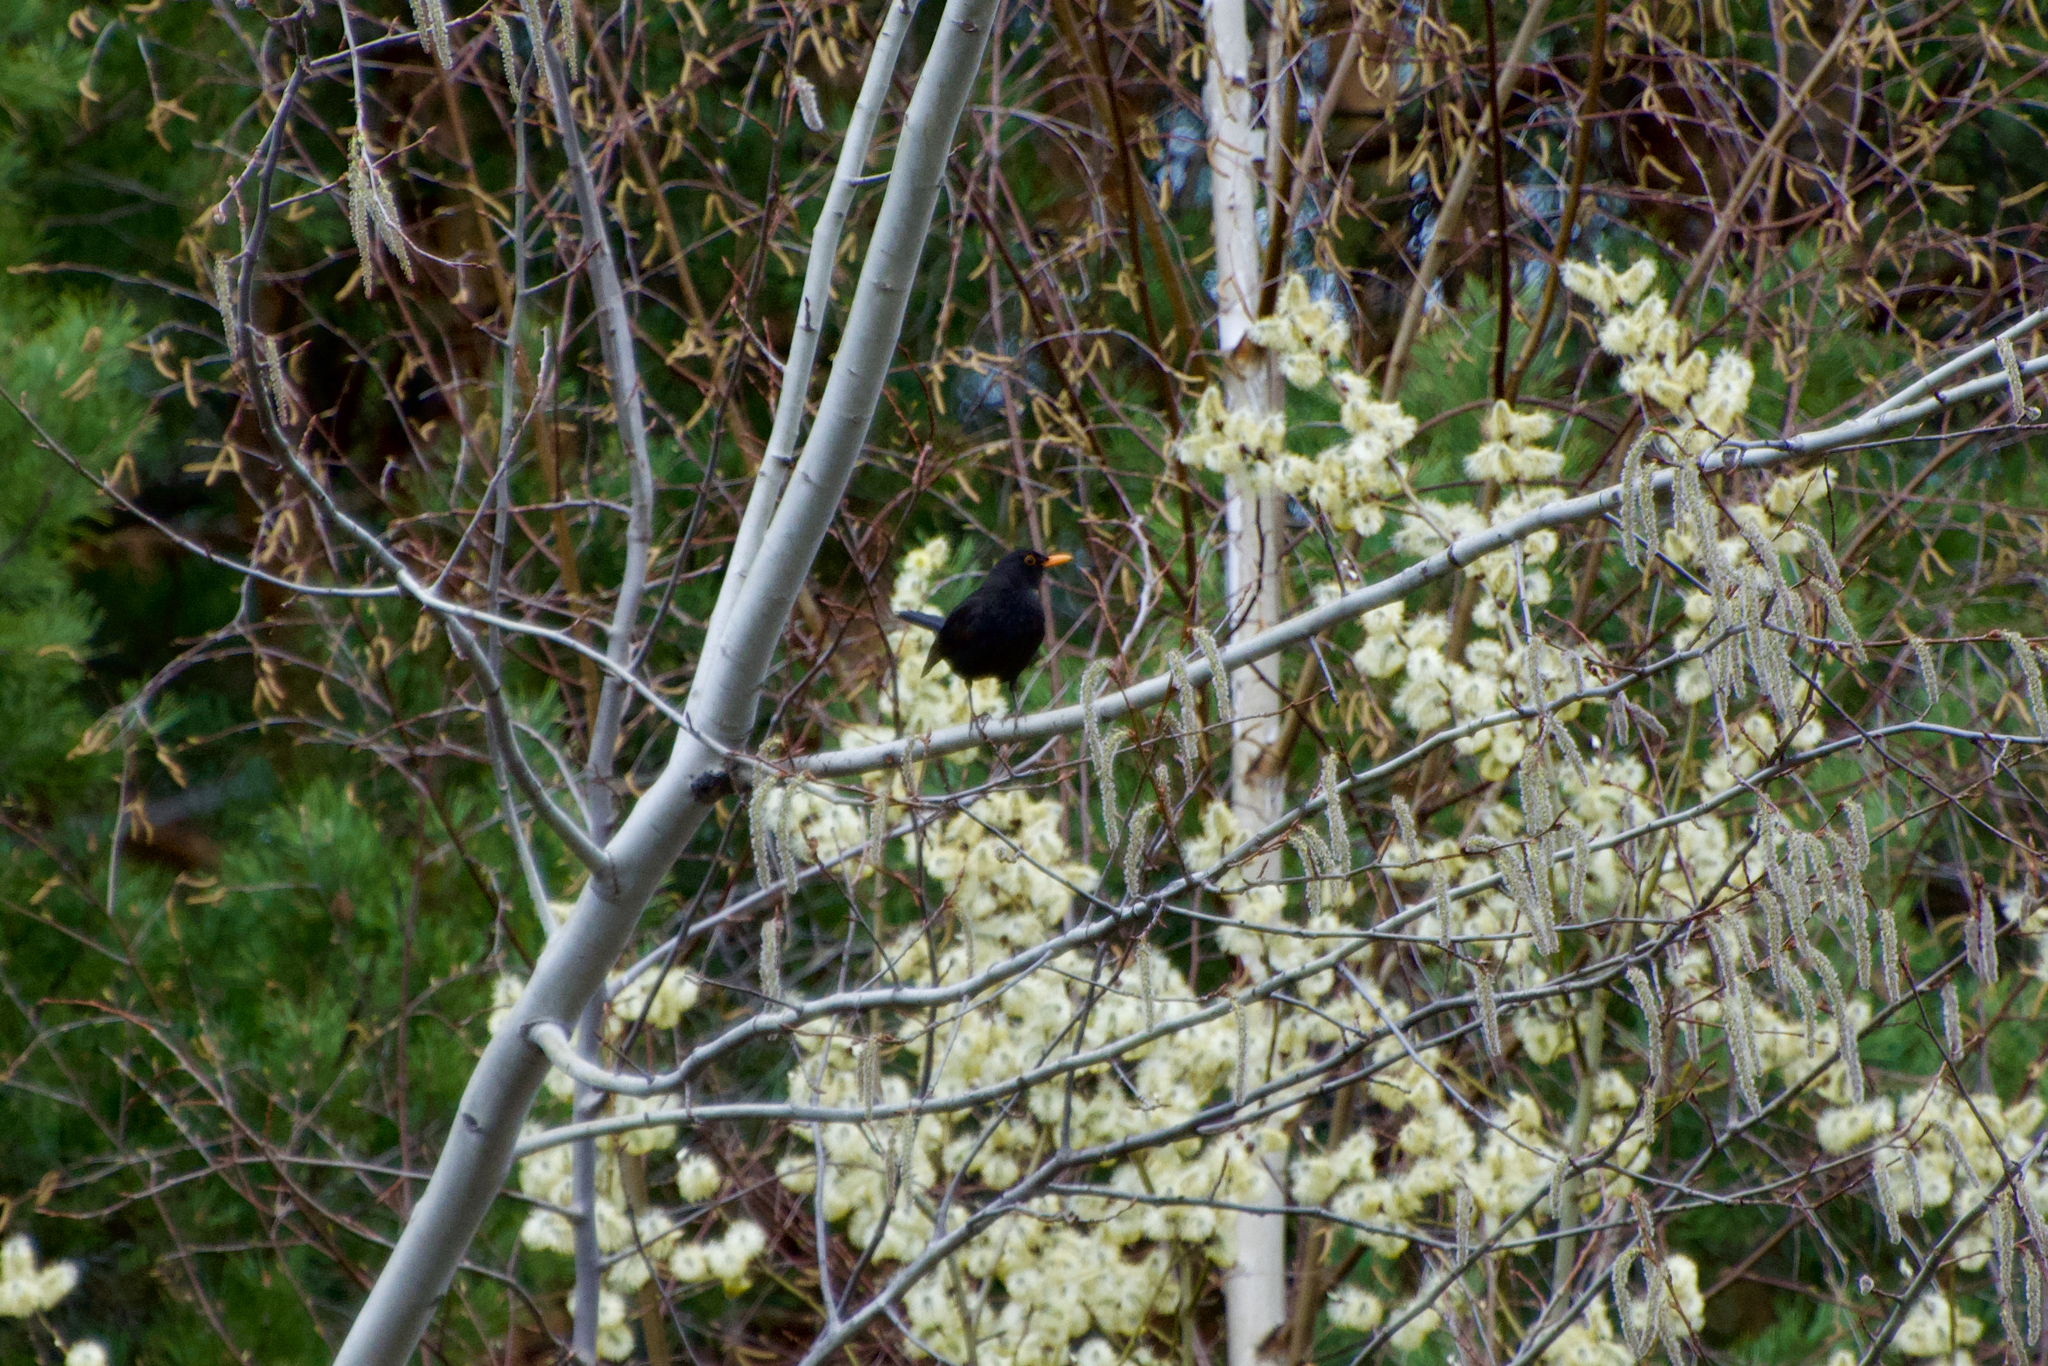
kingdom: Animalia
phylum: Chordata
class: Aves
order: Passeriformes
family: Turdidae
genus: Turdus
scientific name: Turdus merula
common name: Common blackbird
